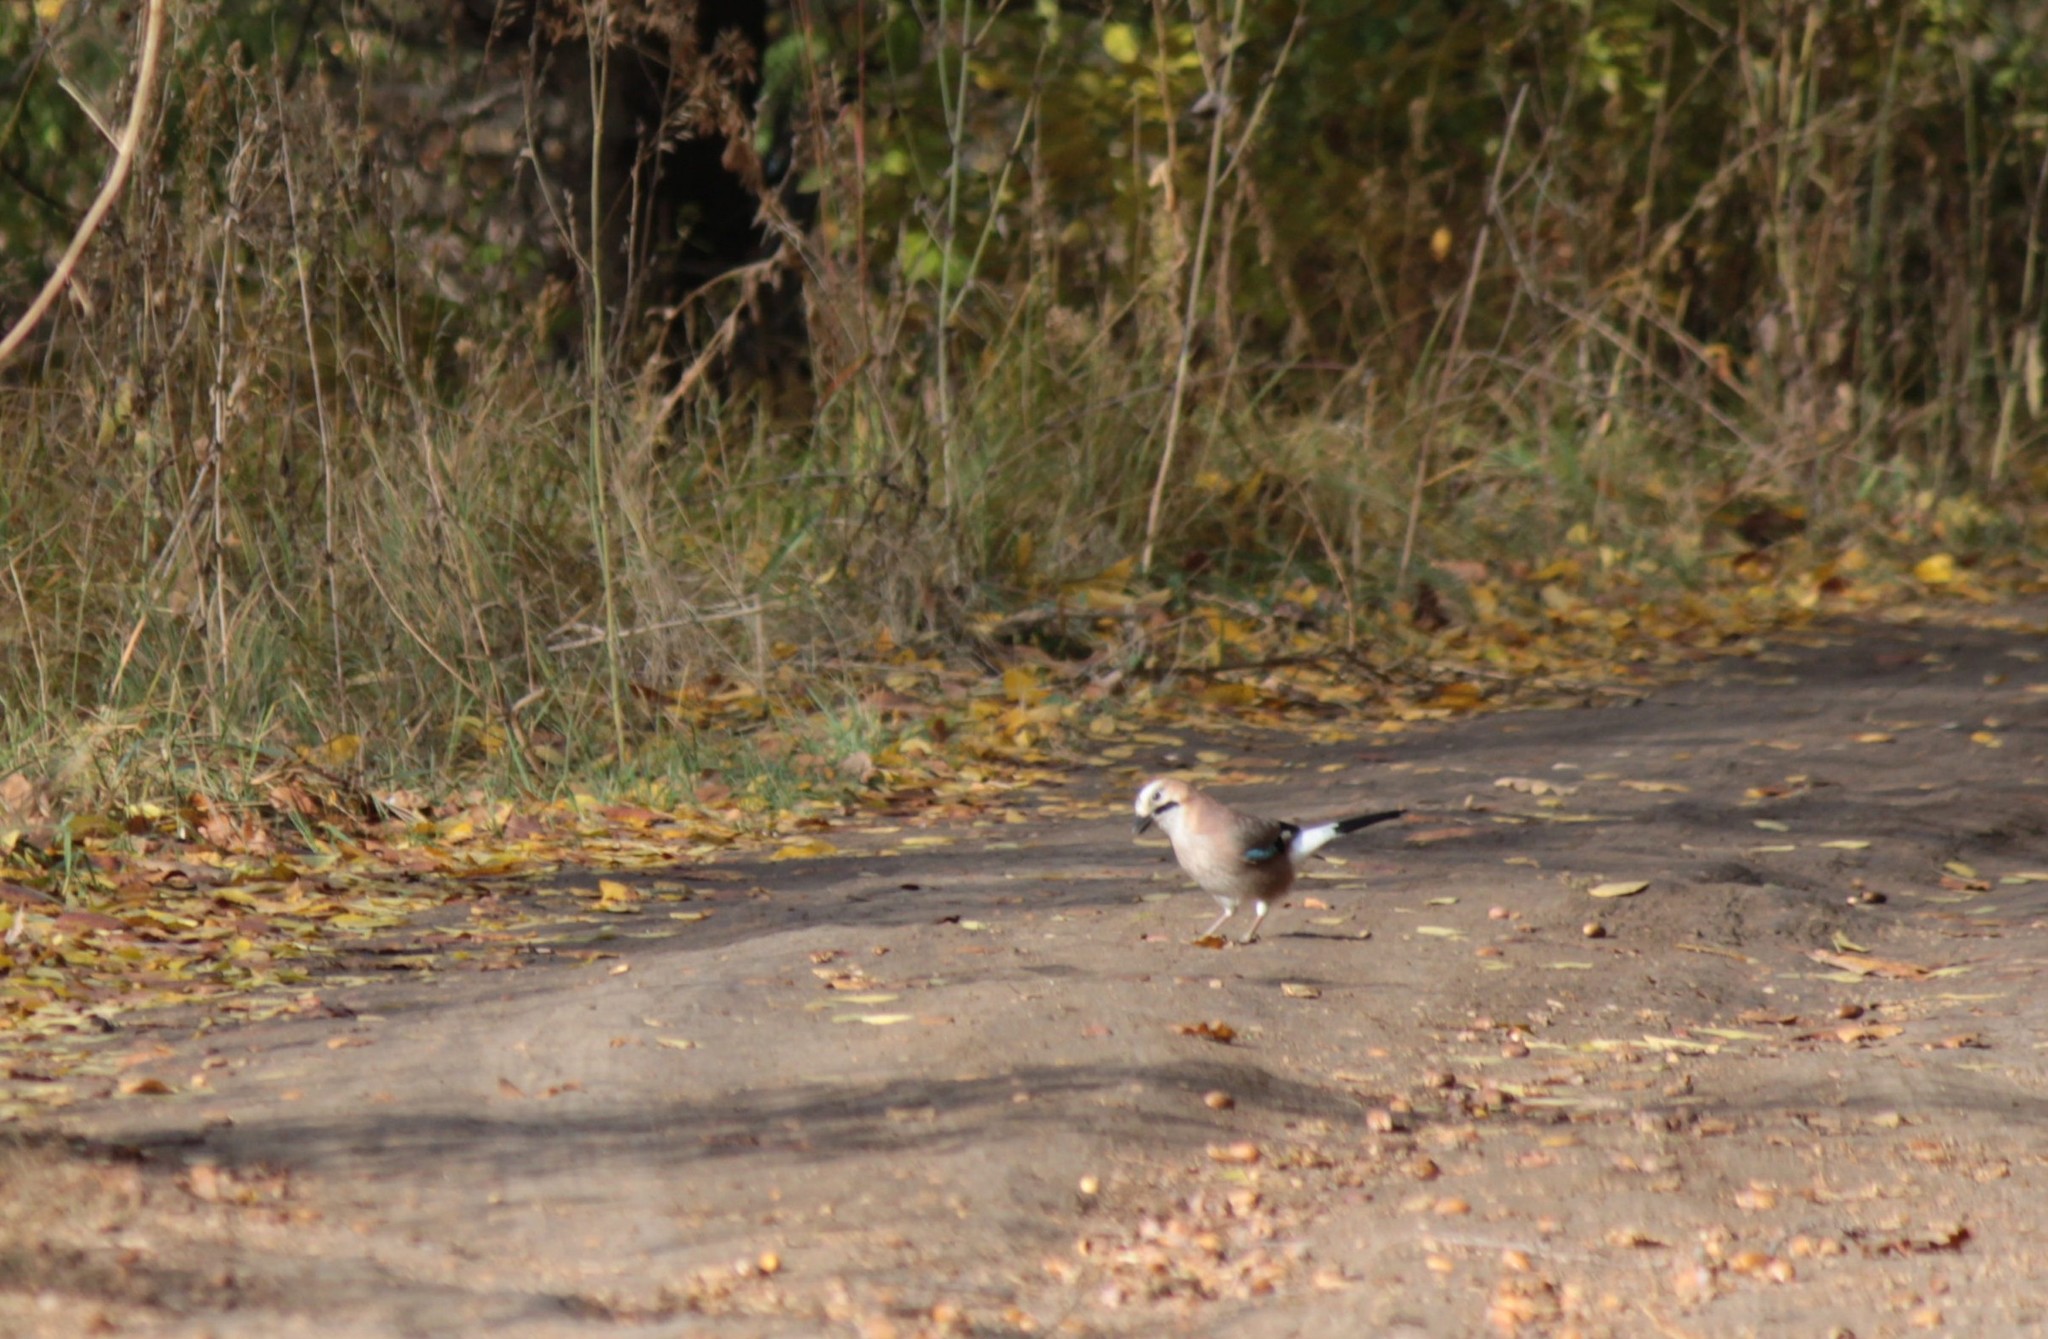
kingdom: Animalia
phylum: Chordata
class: Aves
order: Passeriformes
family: Corvidae
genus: Garrulus
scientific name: Garrulus glandarius
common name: Eurasian jay
